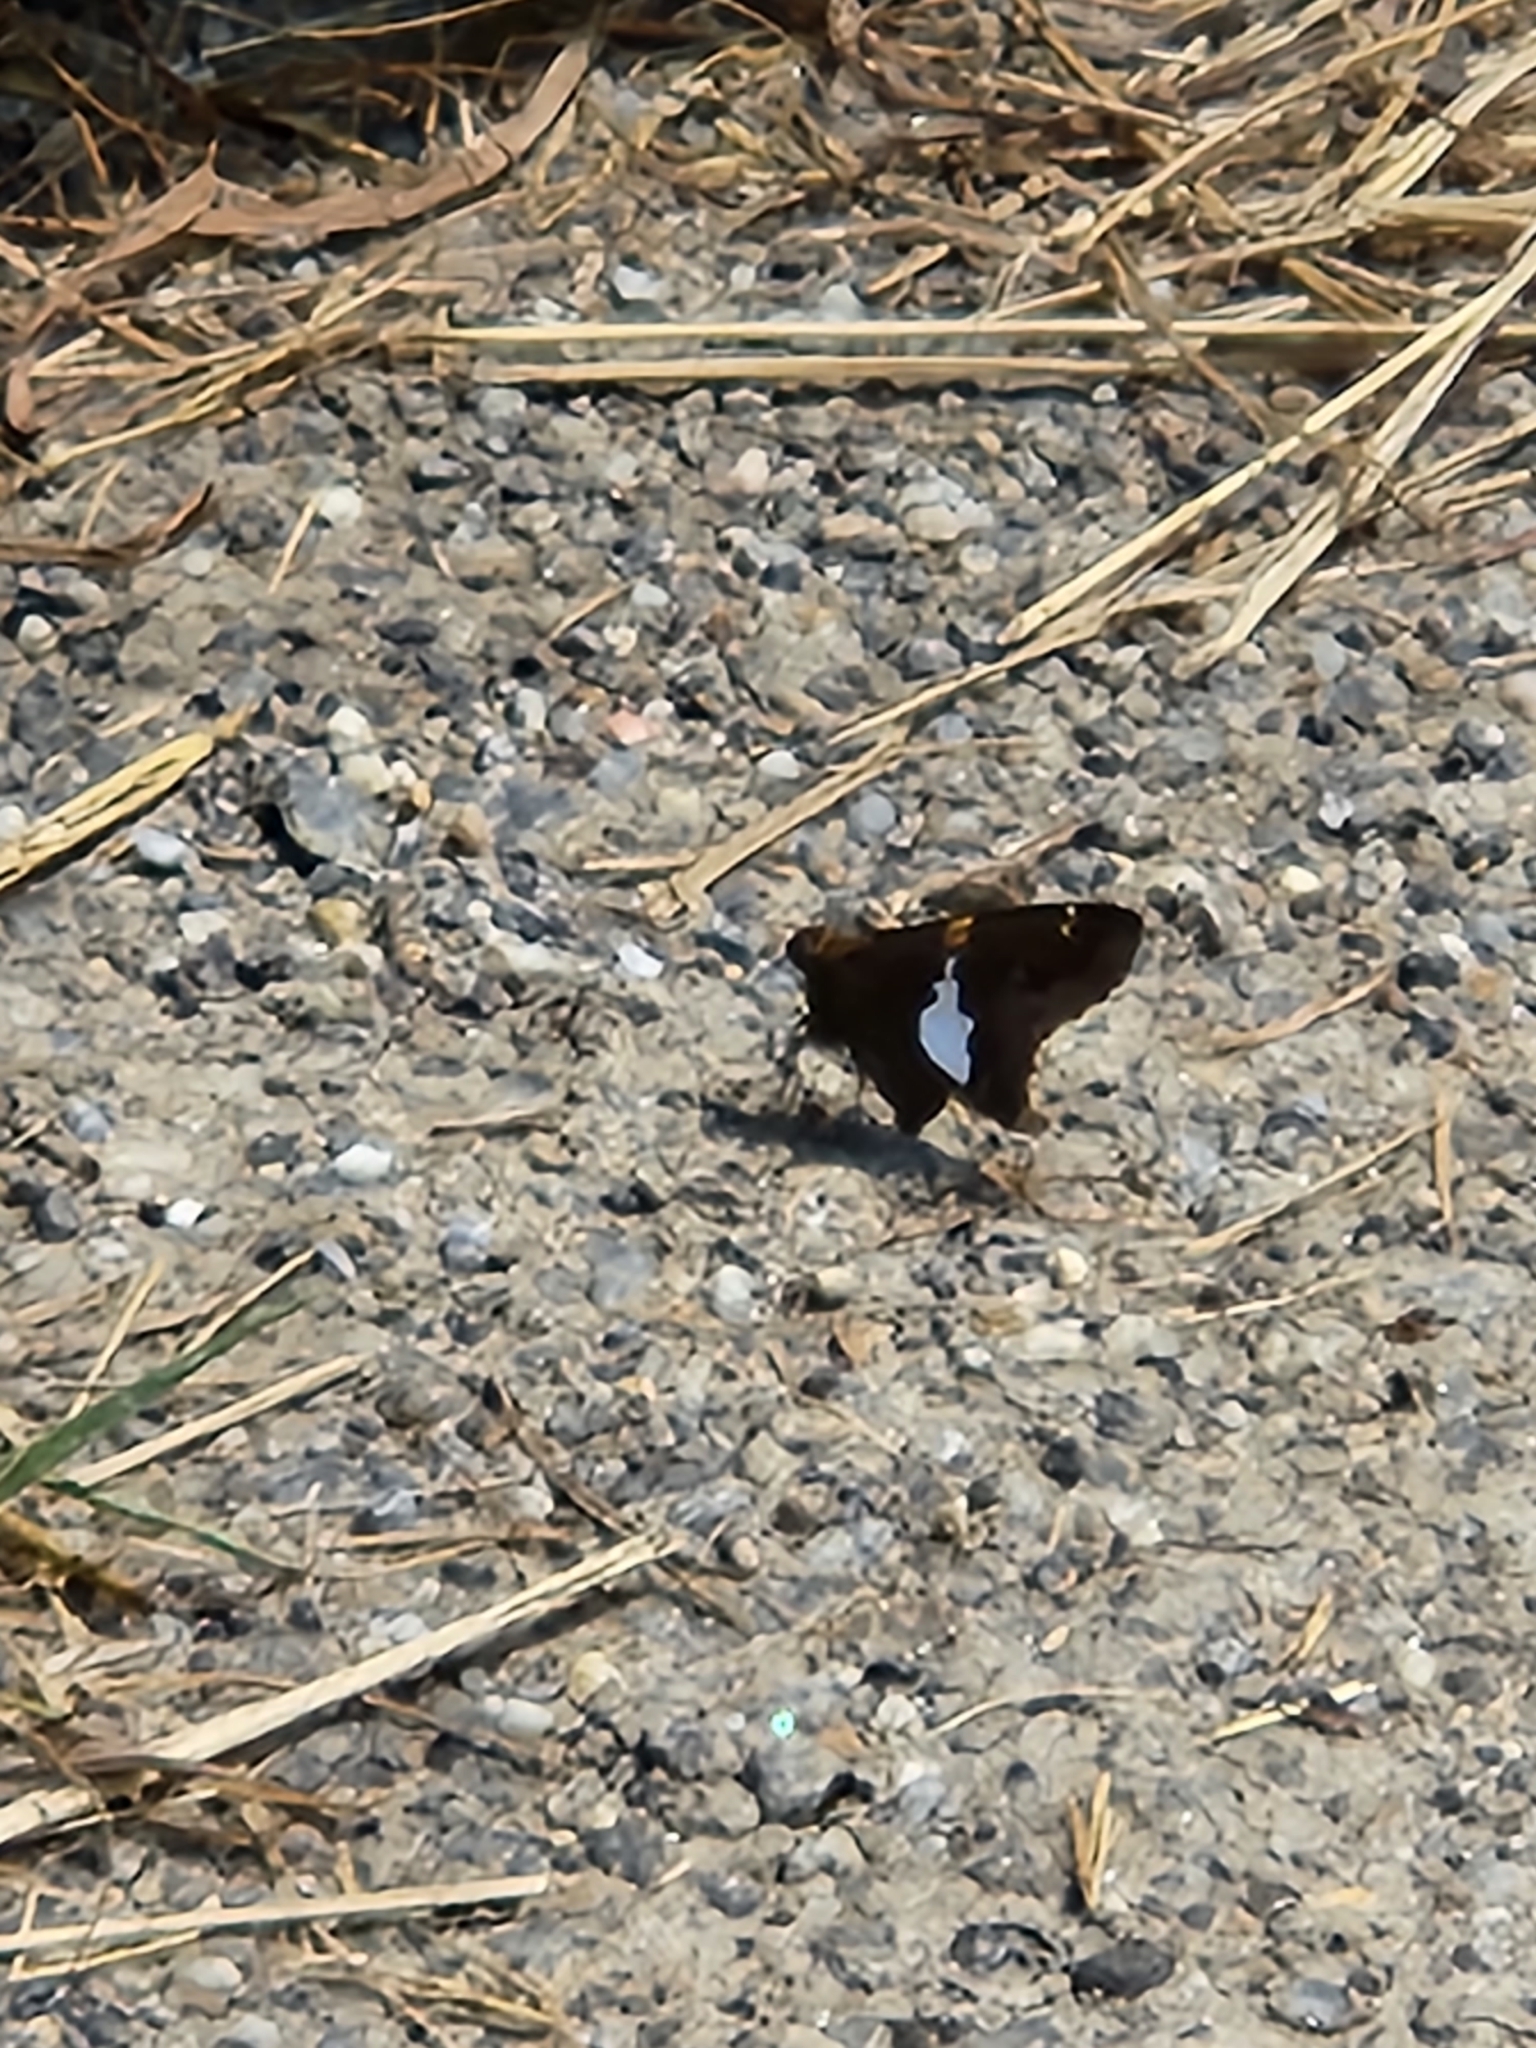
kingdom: Animalia
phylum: Arthropoda
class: Insecta
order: Lepidoptera
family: Hesperiidae
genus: Epargyreus
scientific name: Epargyreus clarus
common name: Silver-spotted skipper
